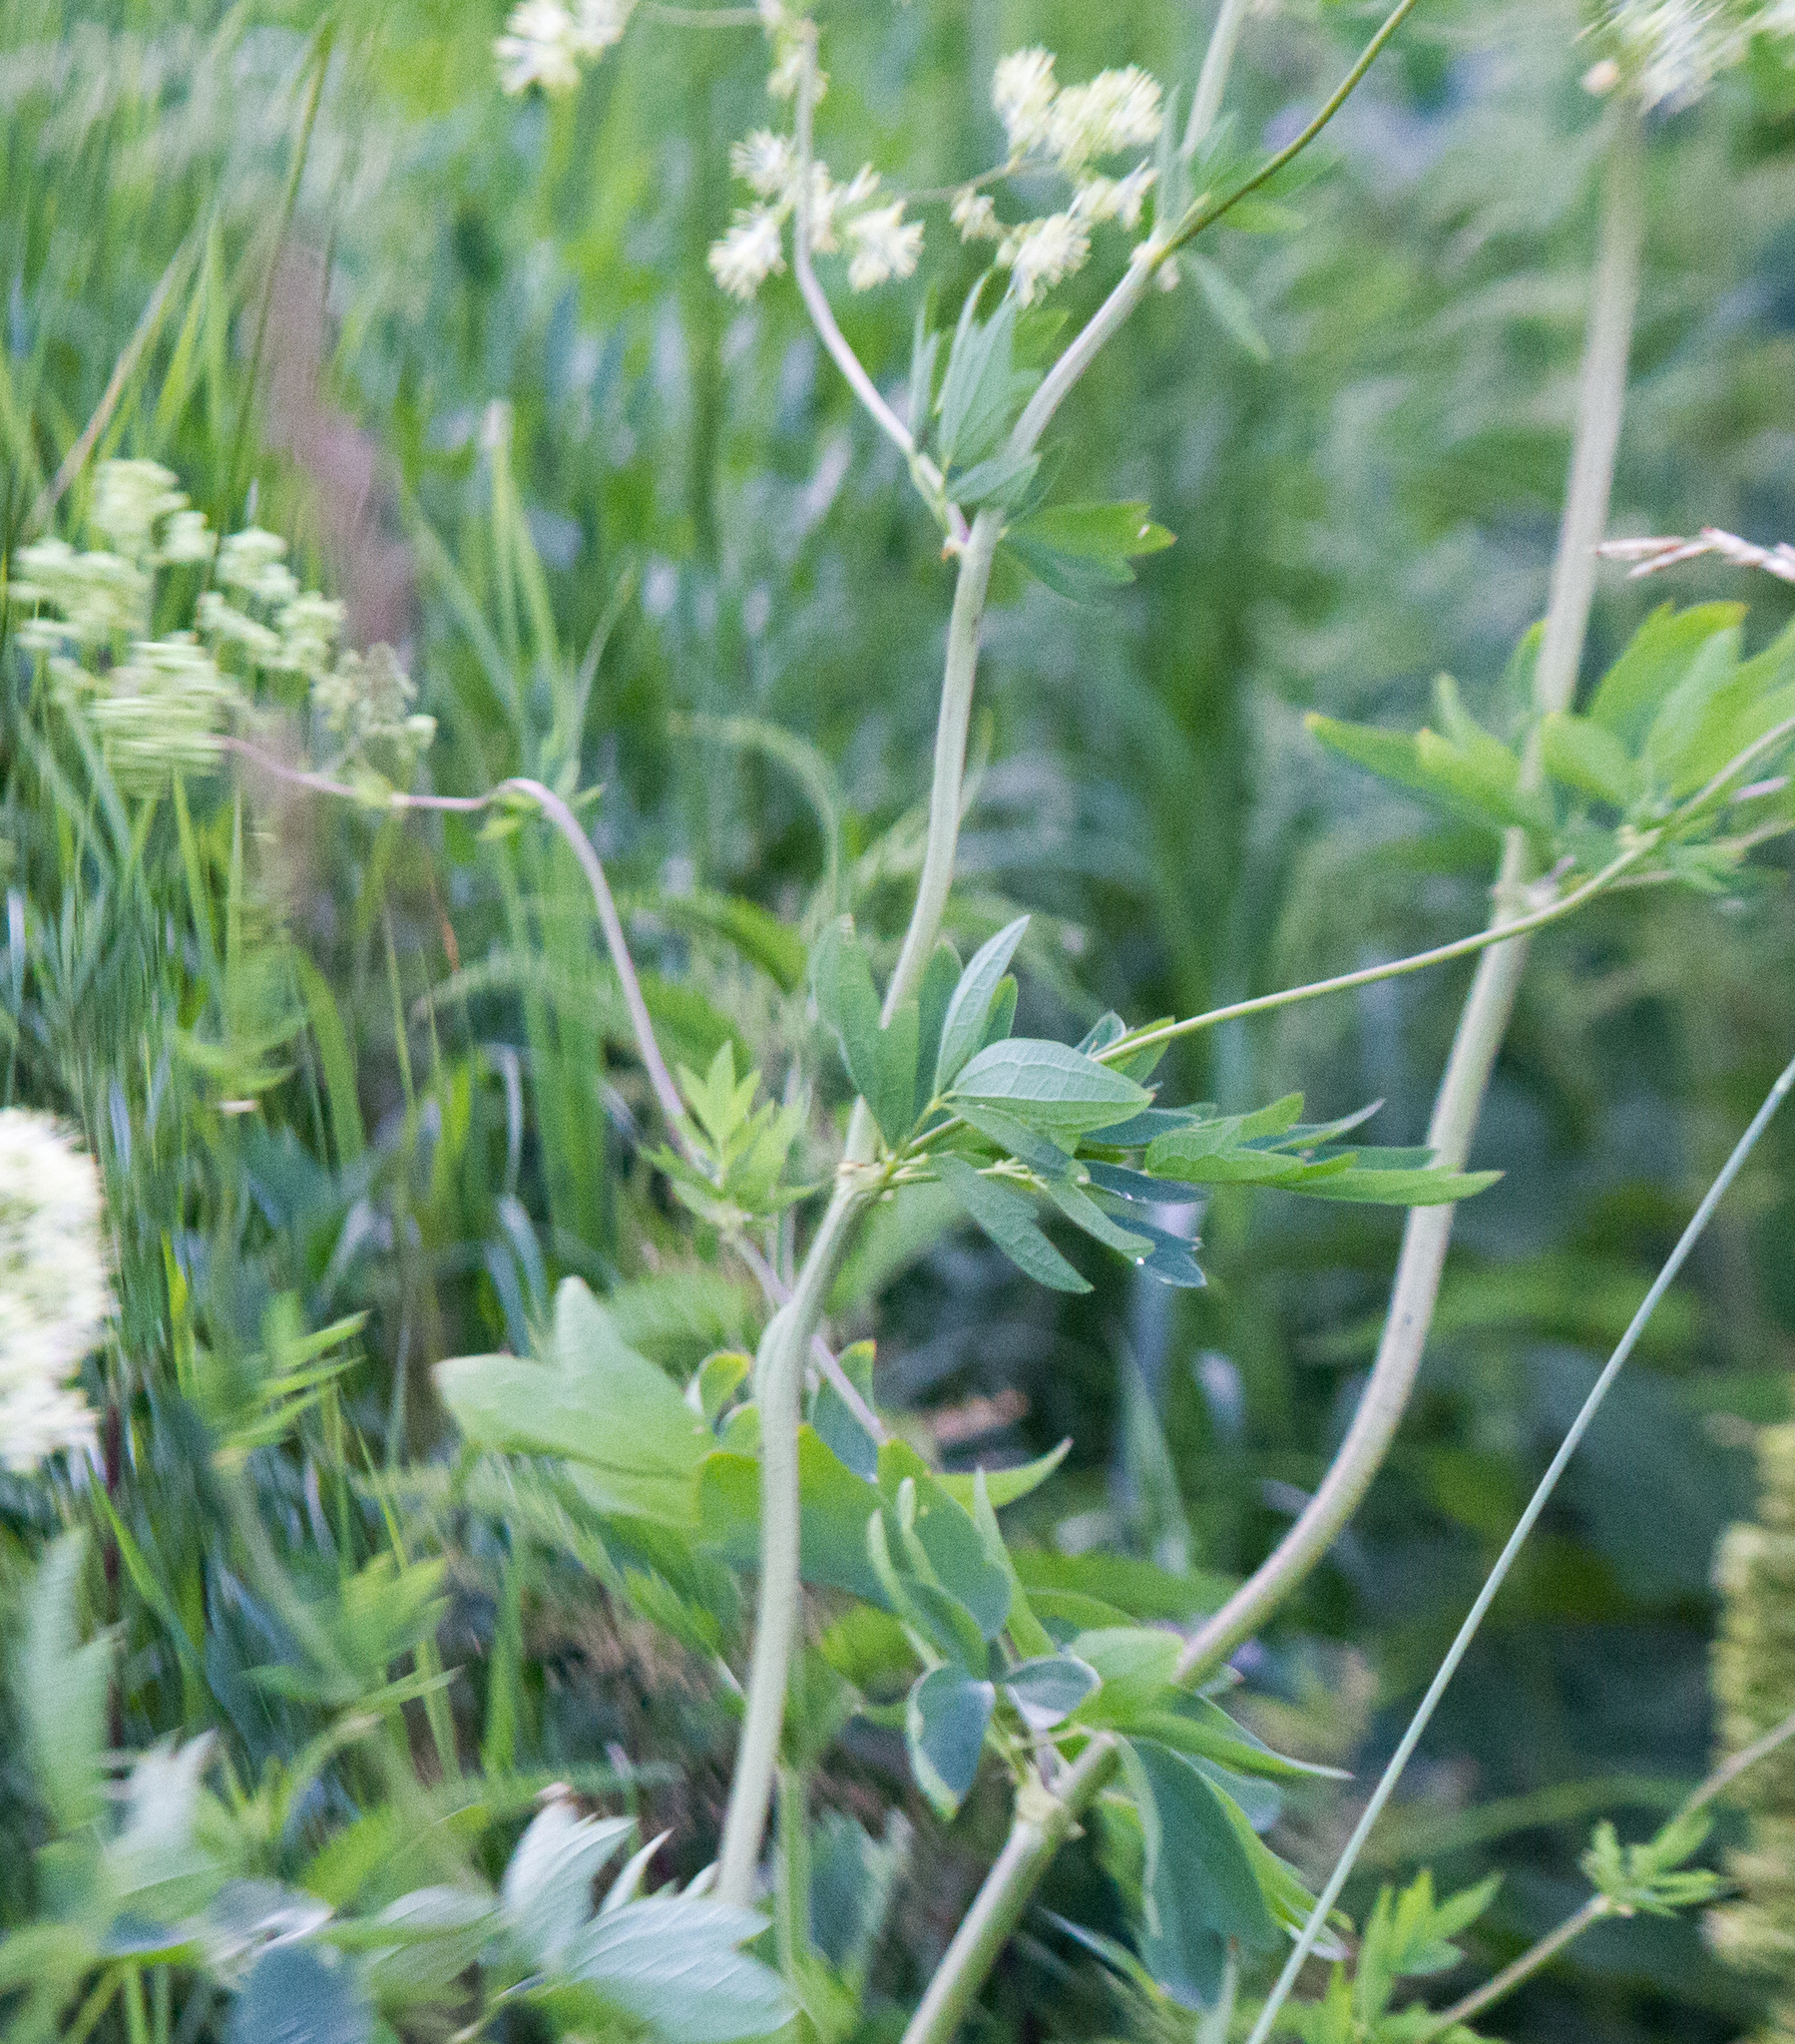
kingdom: Plantae
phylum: Tracheophyta
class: Magnoliopsida
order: Ranunculales
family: Ranunculaceae
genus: Thalictrum
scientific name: Thalictrum flavum
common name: Common meadow-rue
